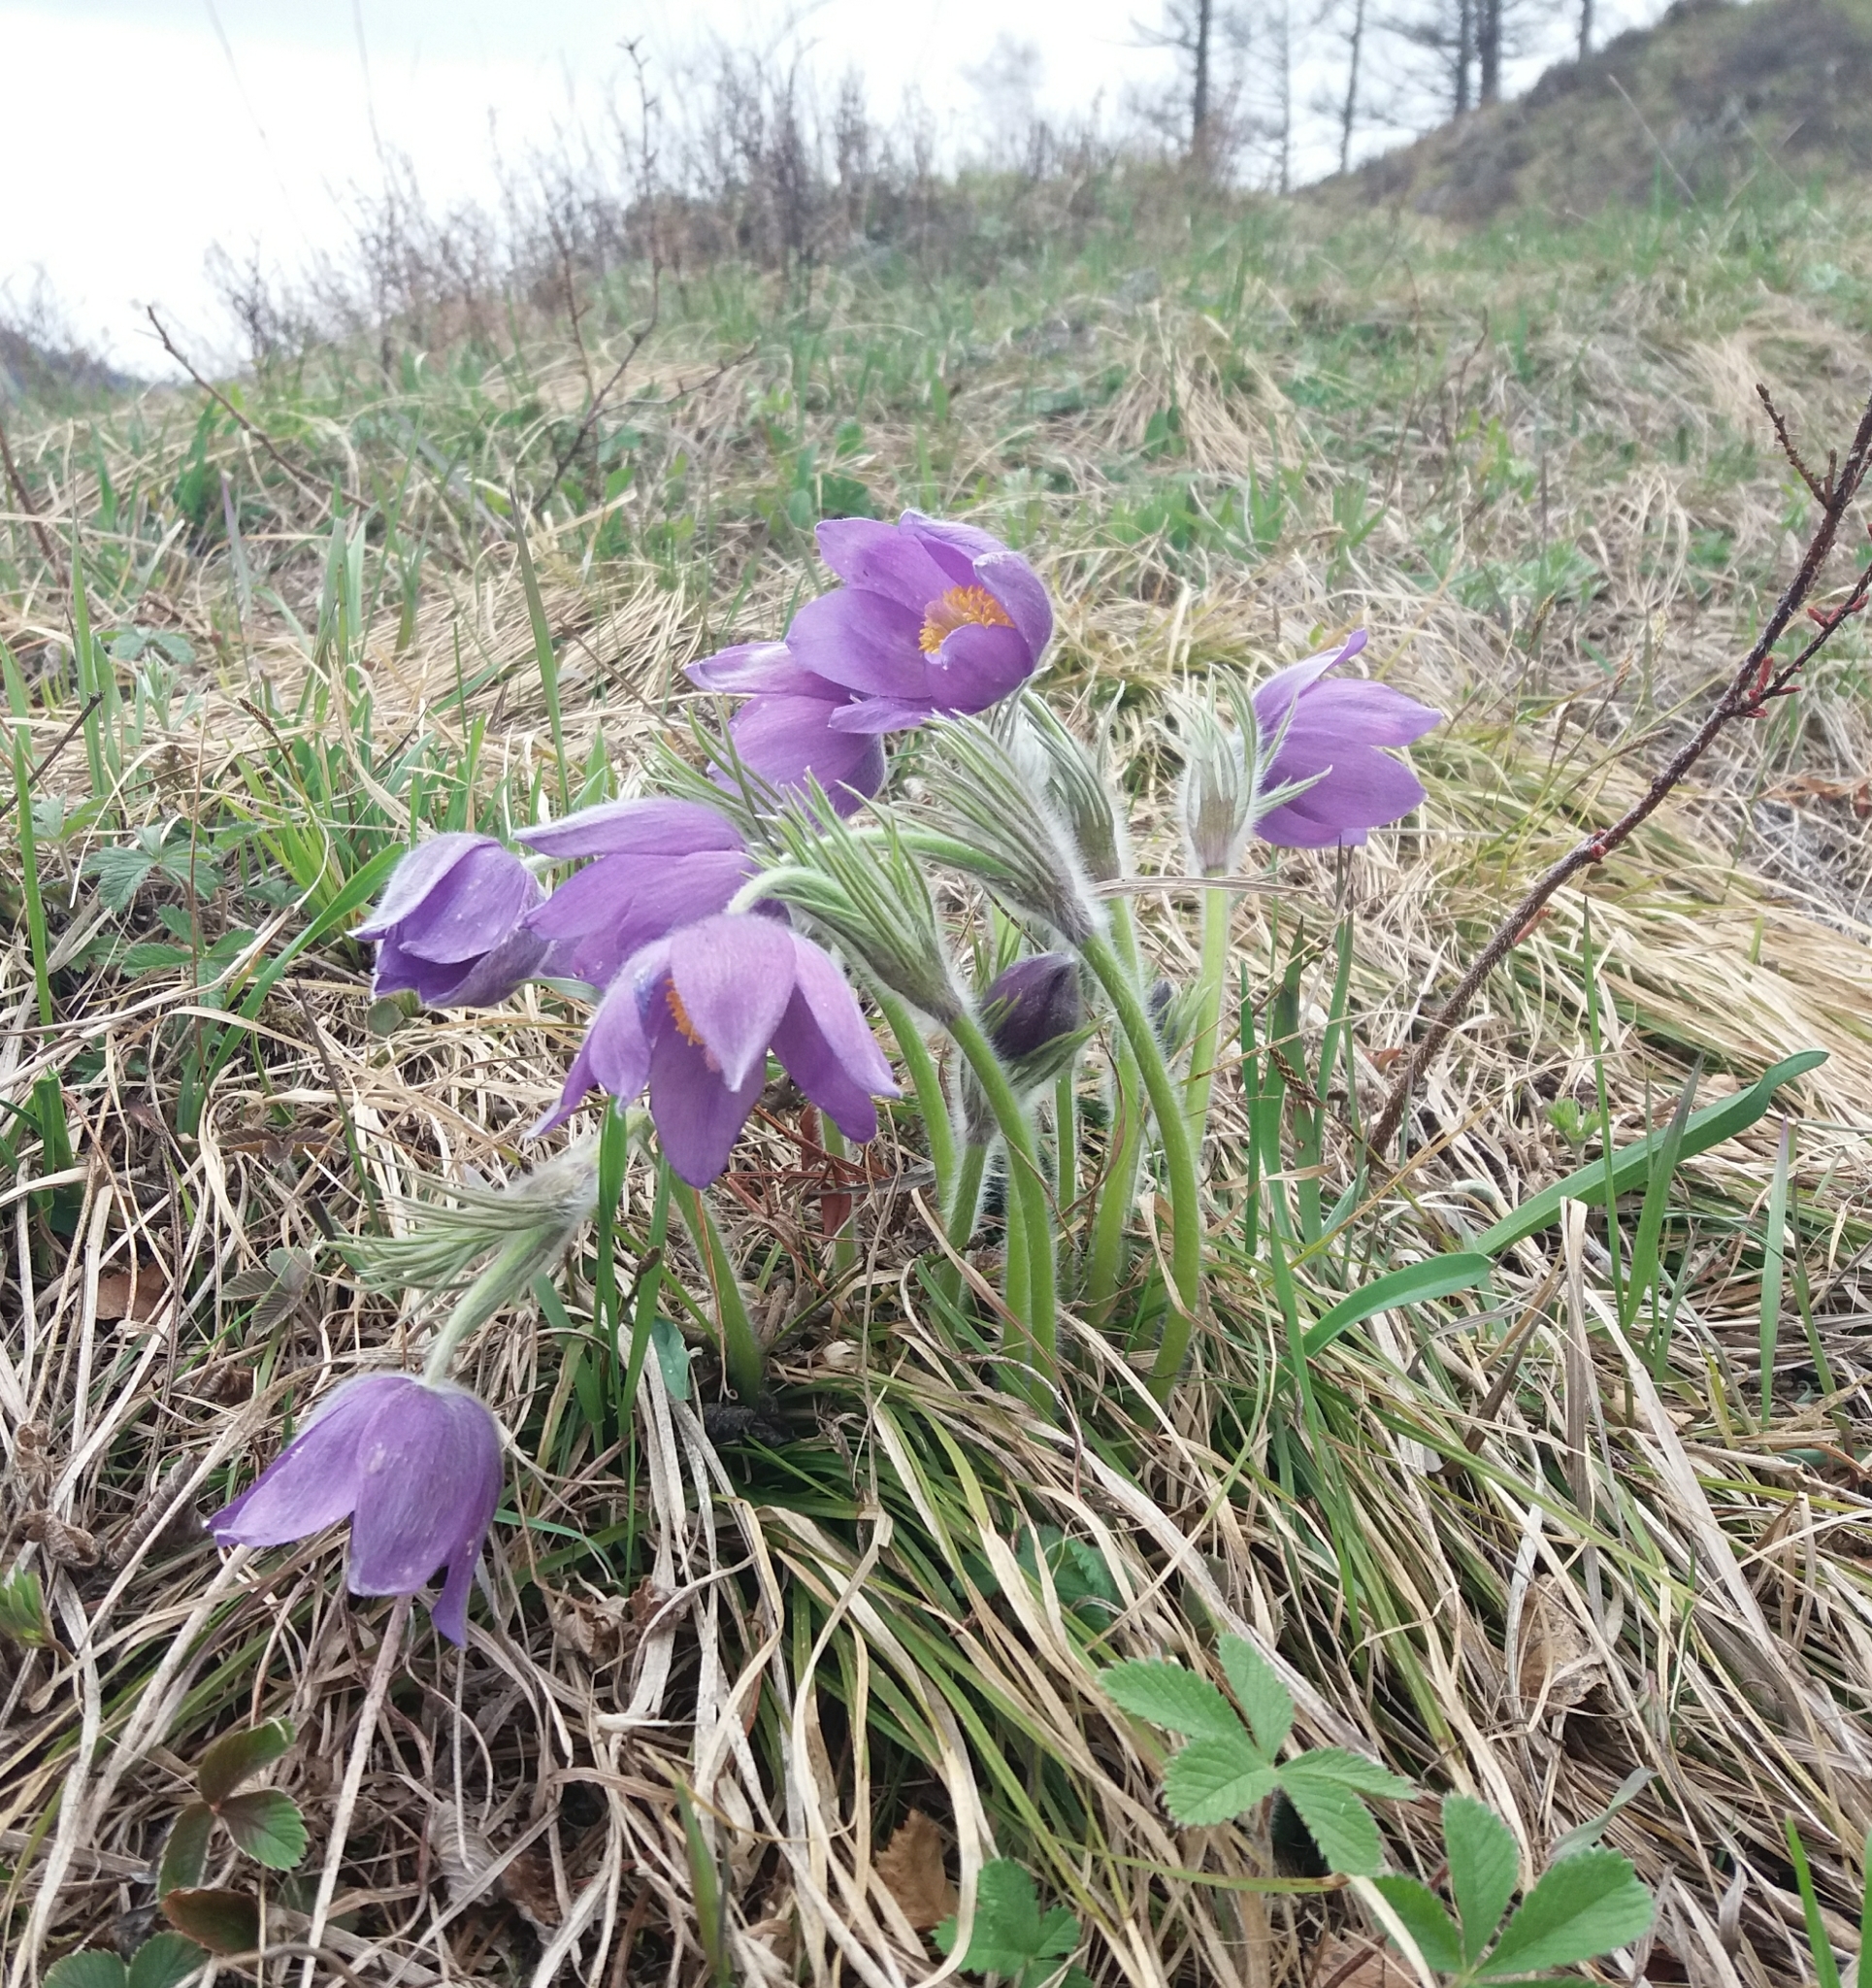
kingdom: Plantae
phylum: Tracheophyta
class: Magnoliopsida
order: Ranunculales
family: Ranunculaceae
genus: Pulsatilla
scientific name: Pulsatilla patens
